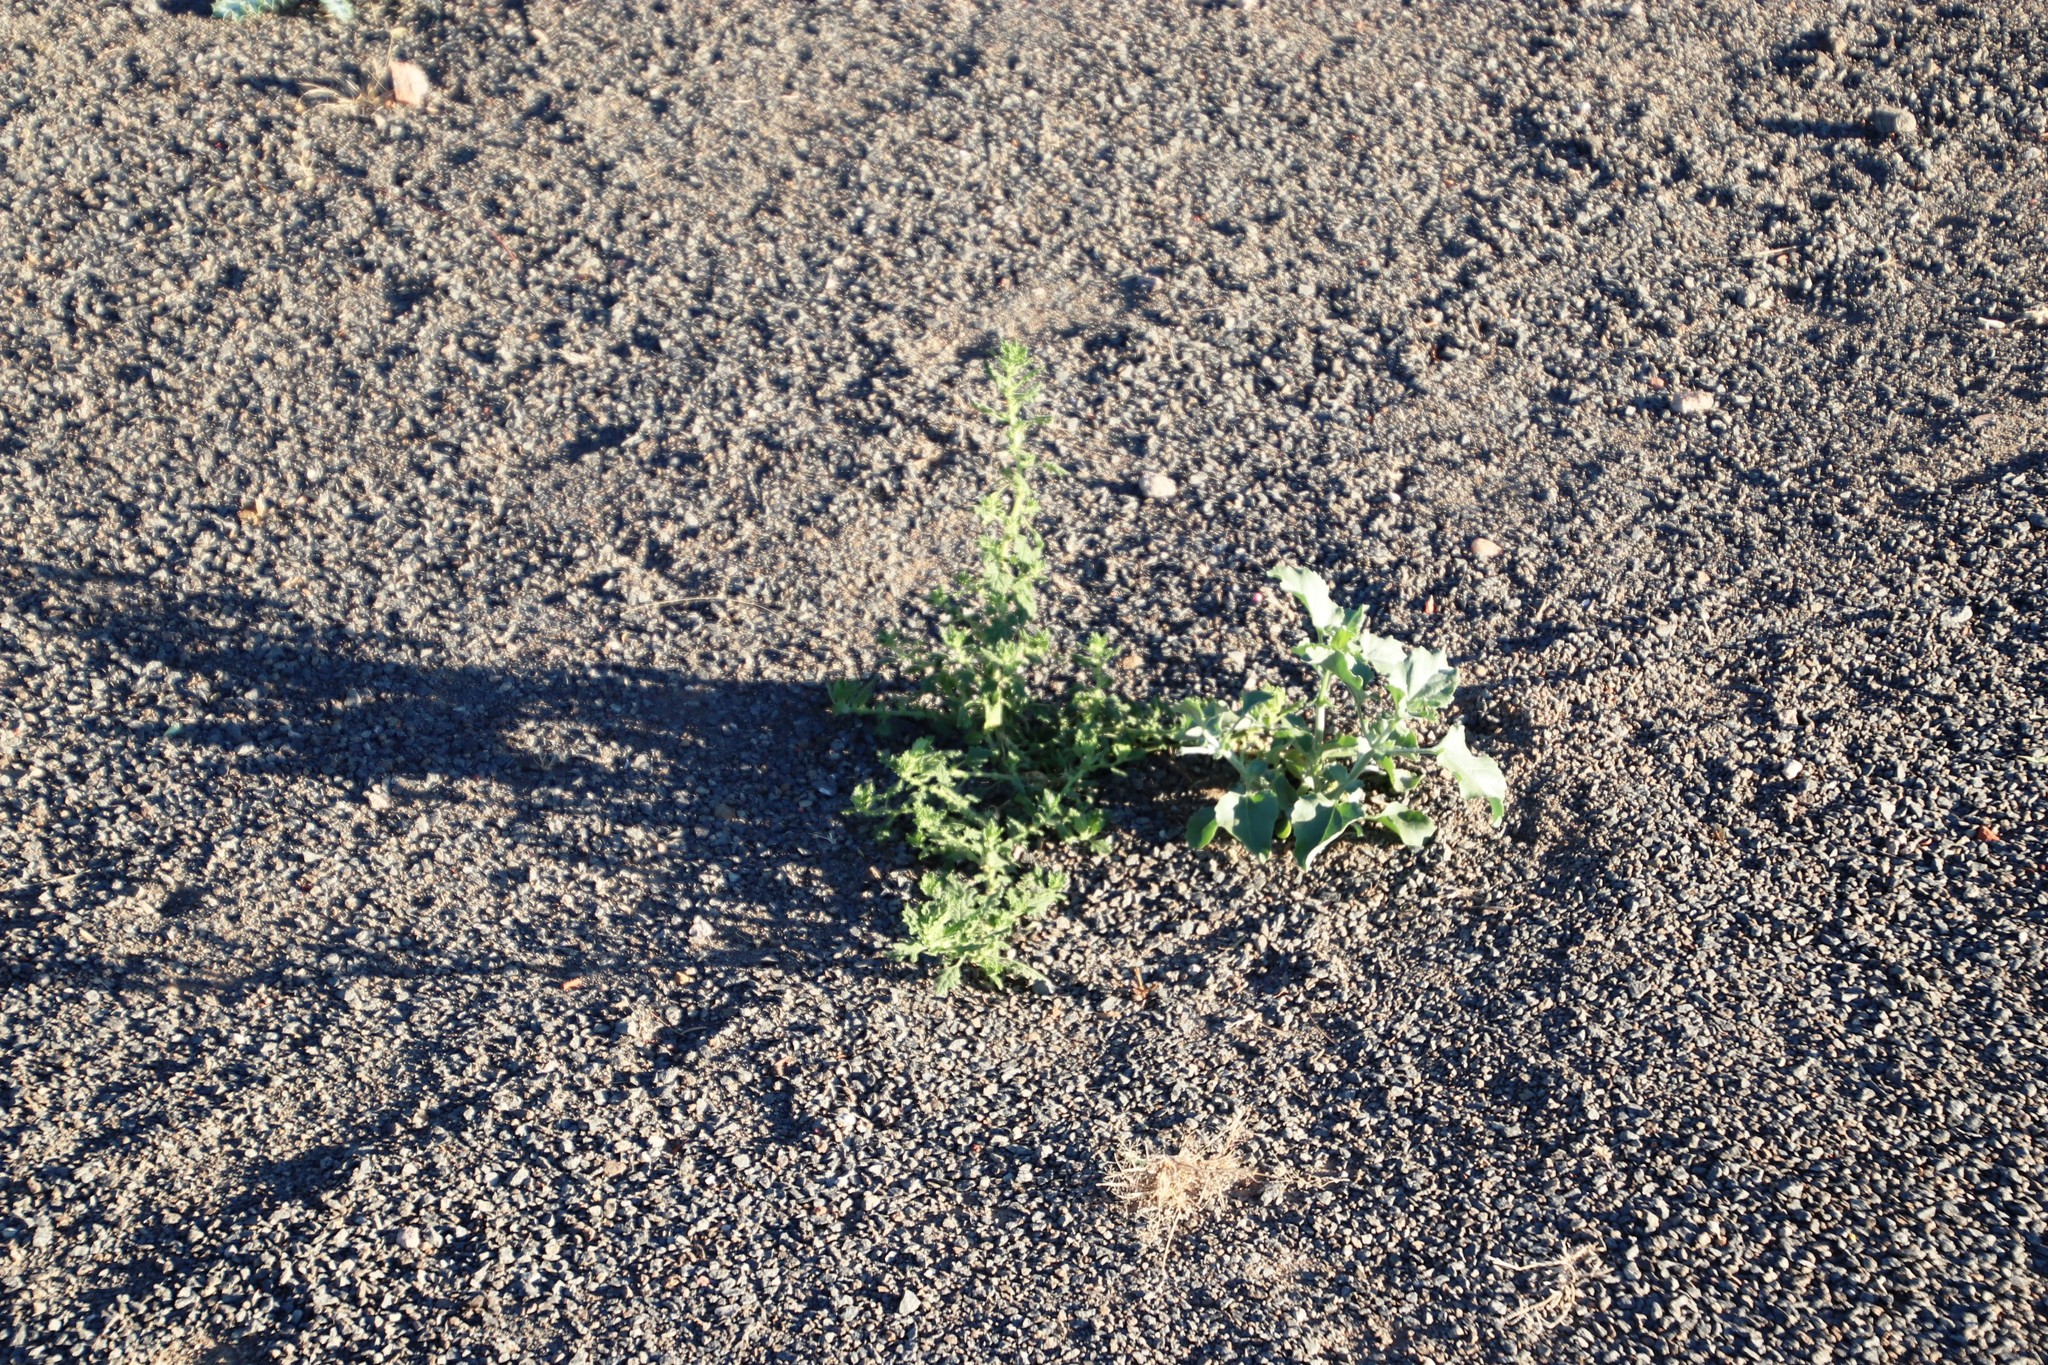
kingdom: Plantae
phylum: Tracheophyta
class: Magnoliopsida
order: Caryophyllales
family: Amaranthaceae
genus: Dysphania
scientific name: Dysphania carinata
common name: Keeled wormseed
